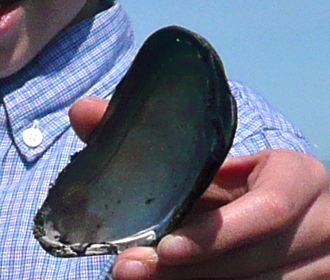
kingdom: Animalia
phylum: Mollusca
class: Bivalvia
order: Mytilida
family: Mytilidae
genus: Mytilus
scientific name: Mytilus californianus
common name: California mussel
